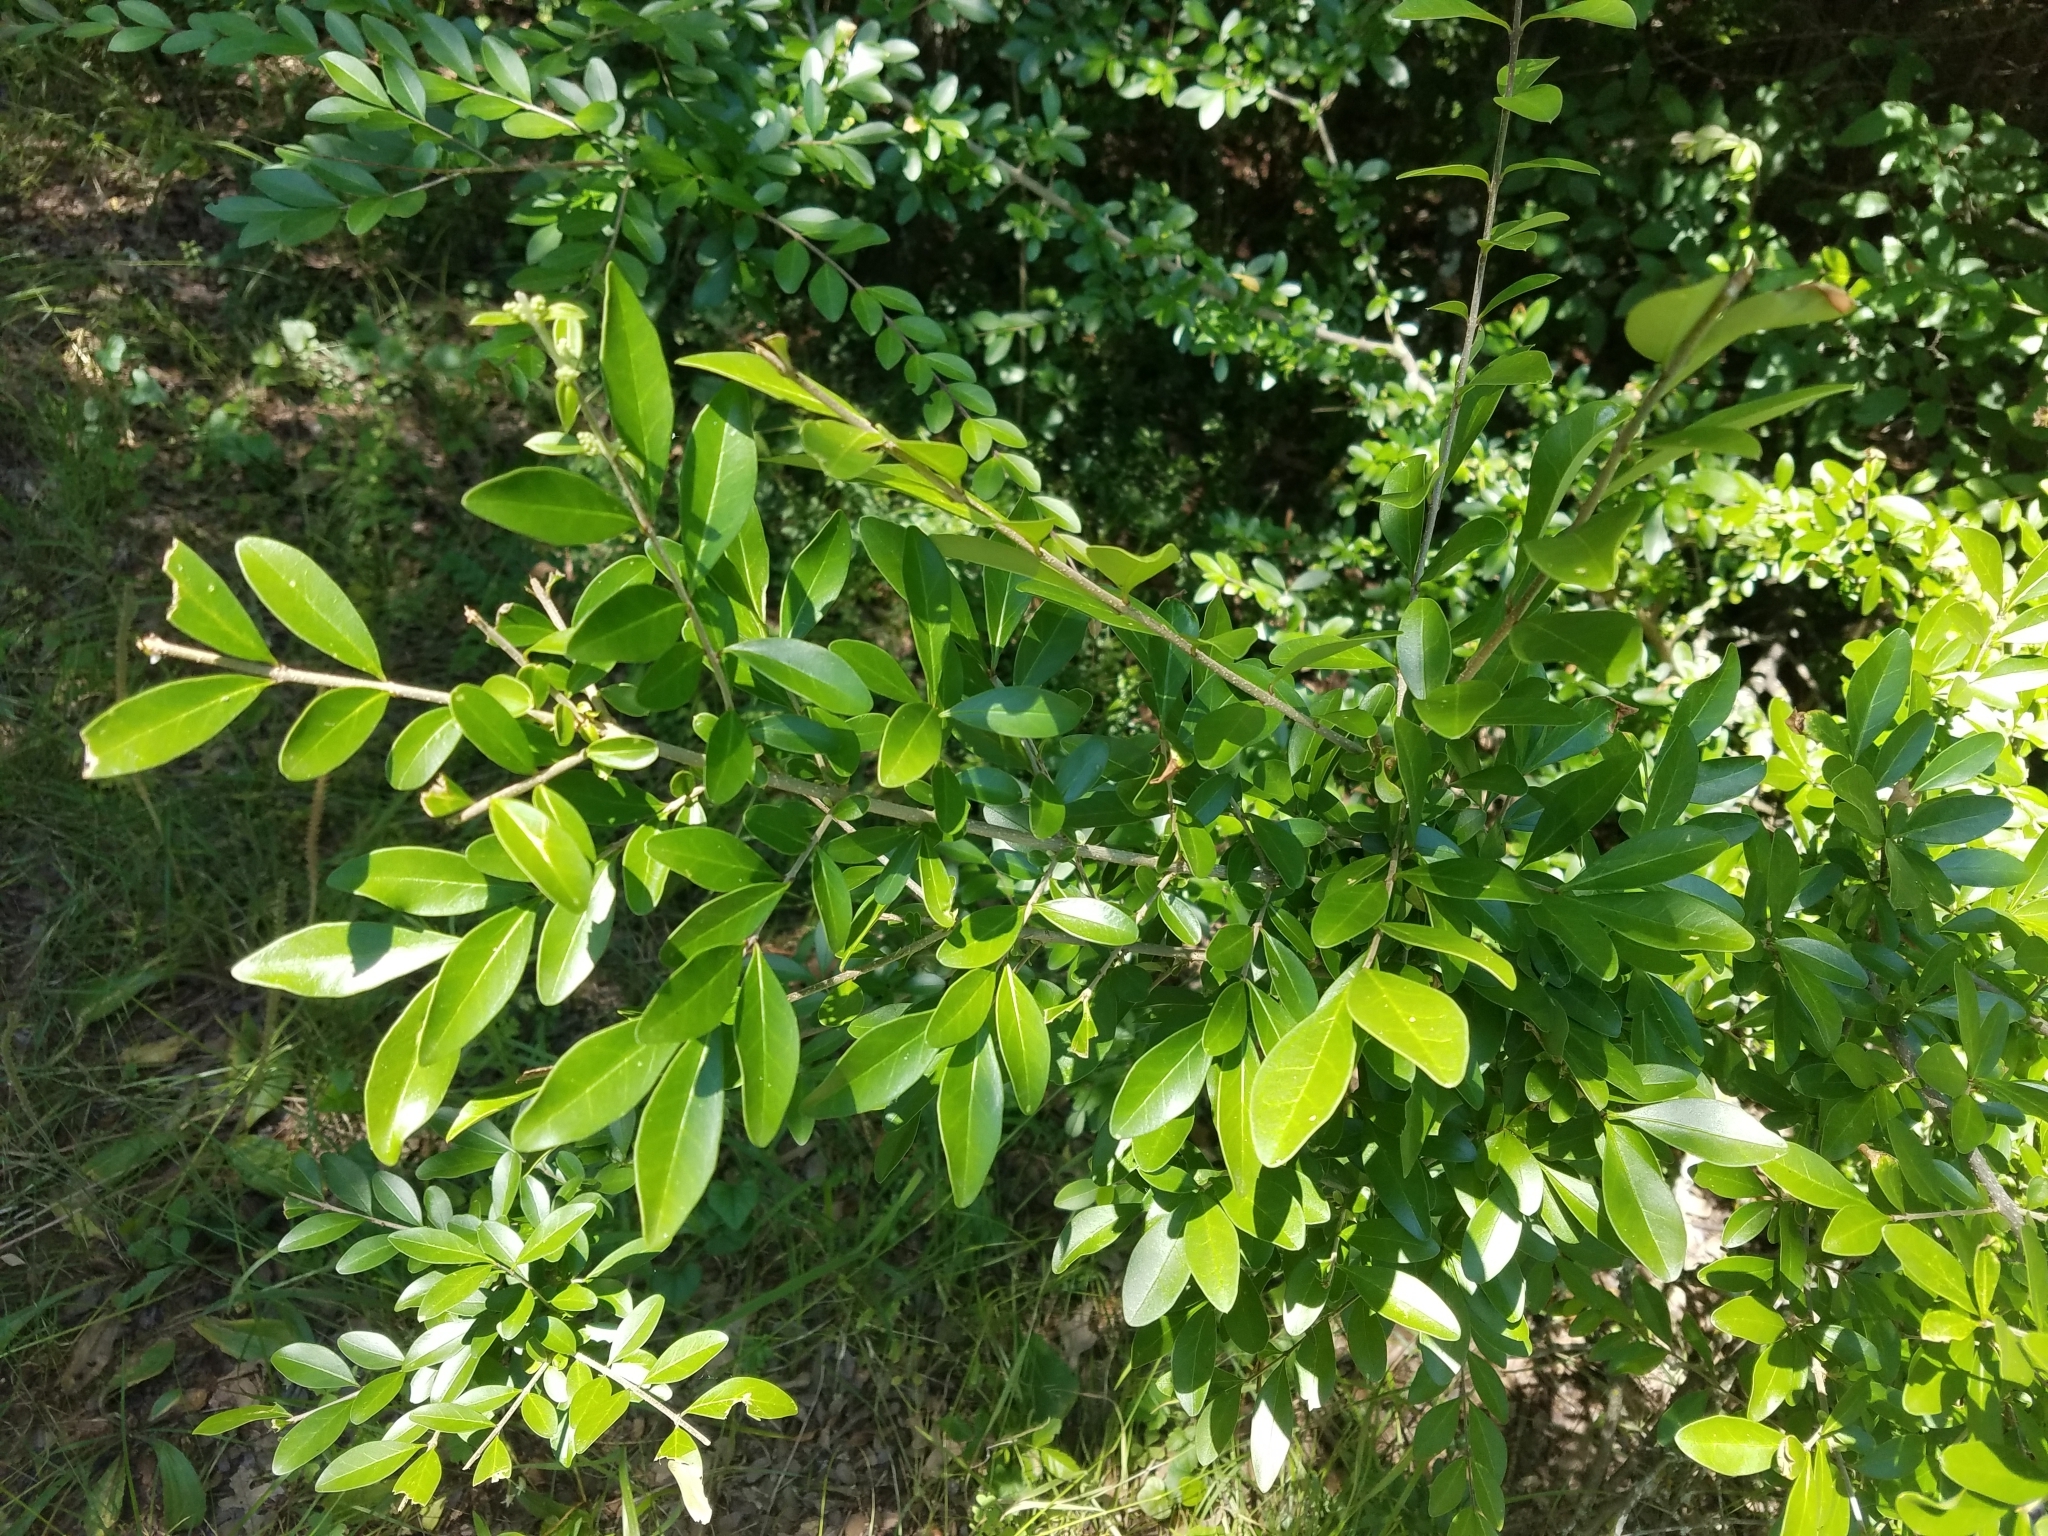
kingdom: Plantae
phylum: Tracheophyta
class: Magnoliopsida
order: Lamiales
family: Oleaceae
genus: Ligustrum
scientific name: Ligustrum quihoui
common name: Waxyleaf privet
